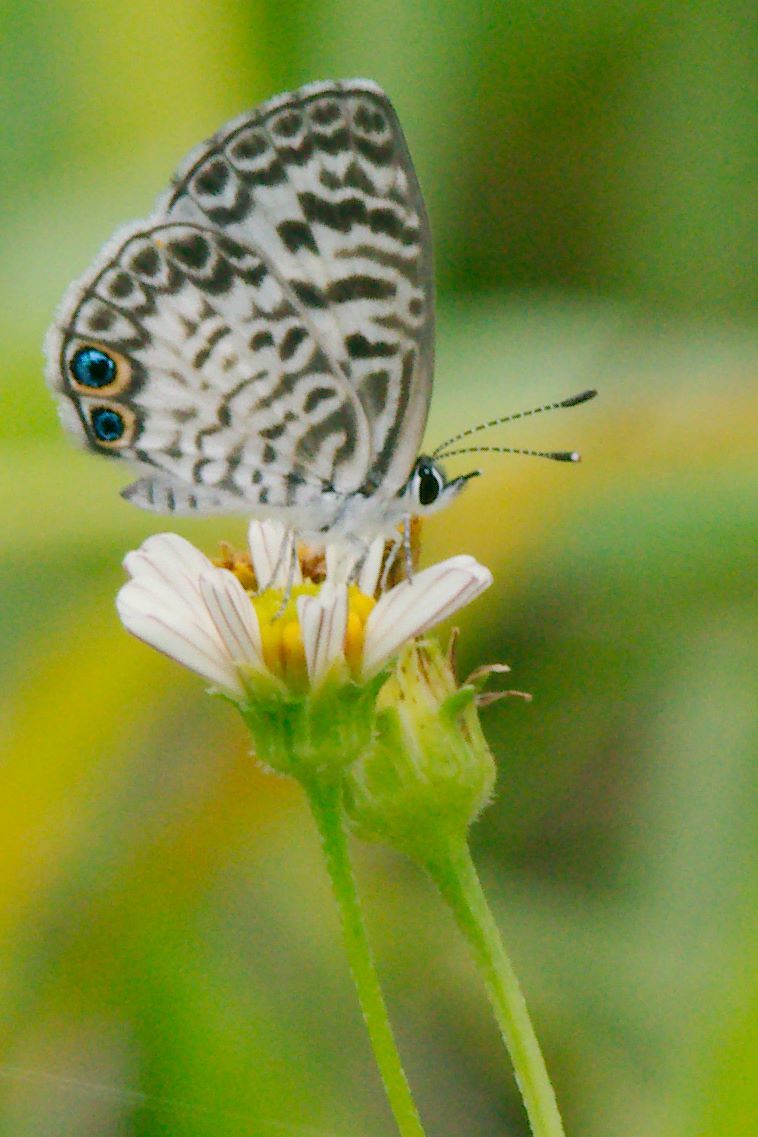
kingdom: Animalia
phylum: Arthropoda
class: Insecta
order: Lepidoptera
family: Lycaenidae
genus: Leptotes
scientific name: Leptotes cassius
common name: Cassius blue
